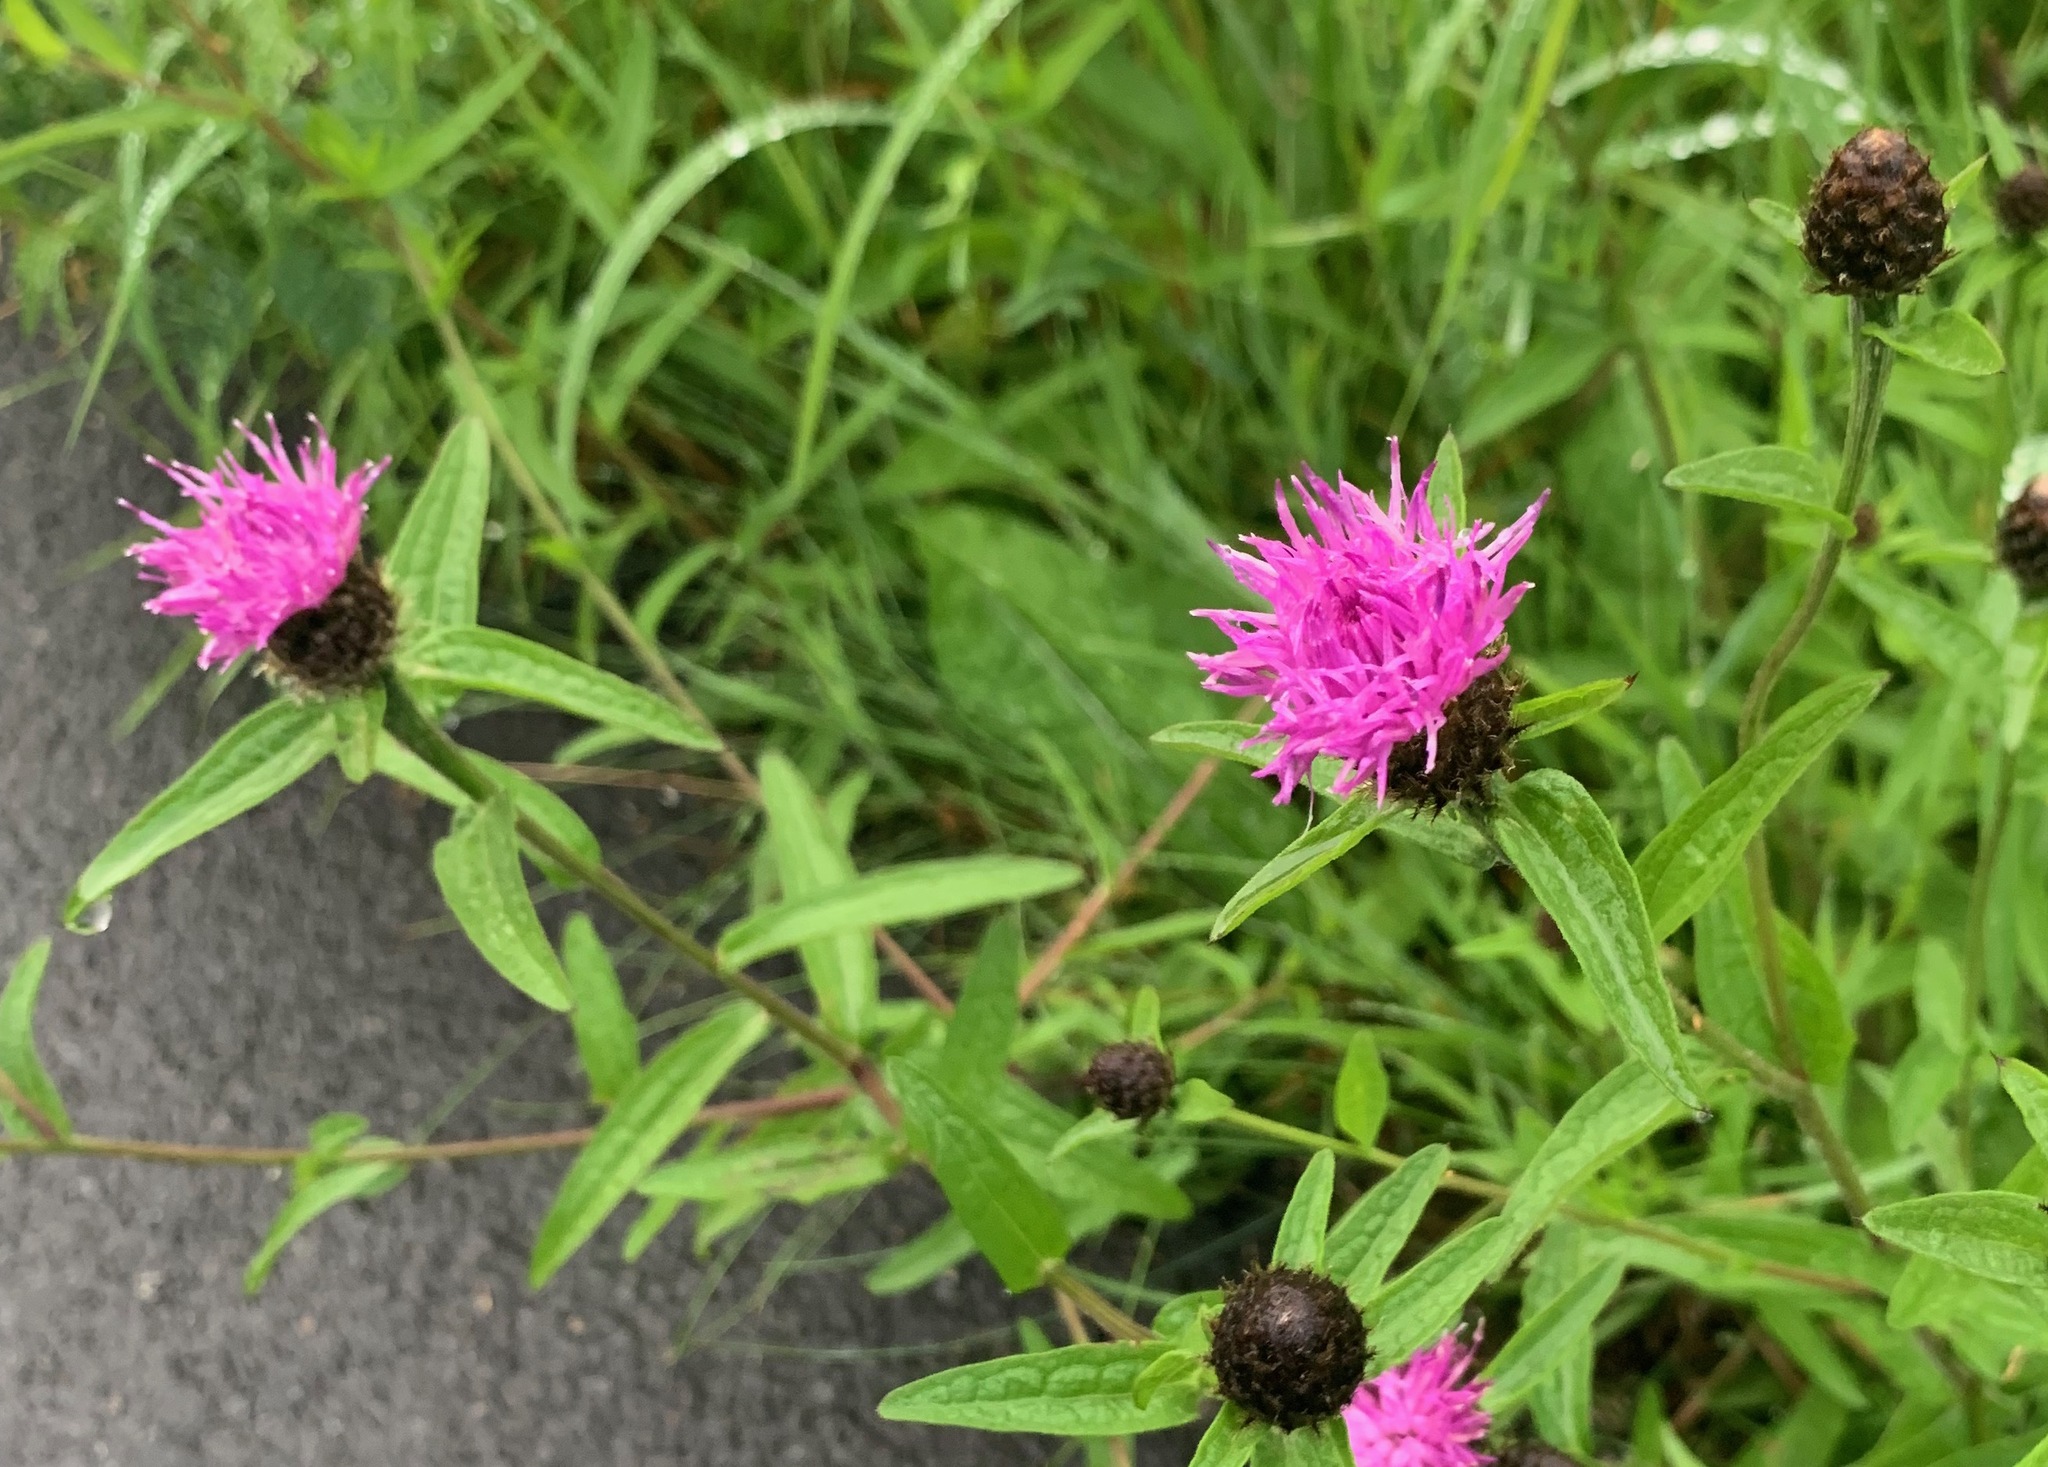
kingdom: Plantae
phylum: Tracheophyta
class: Magnoliopsida
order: Asterales
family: Asteraceae
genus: Centaurea
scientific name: Centaurea nigra
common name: Lesser knapweed
